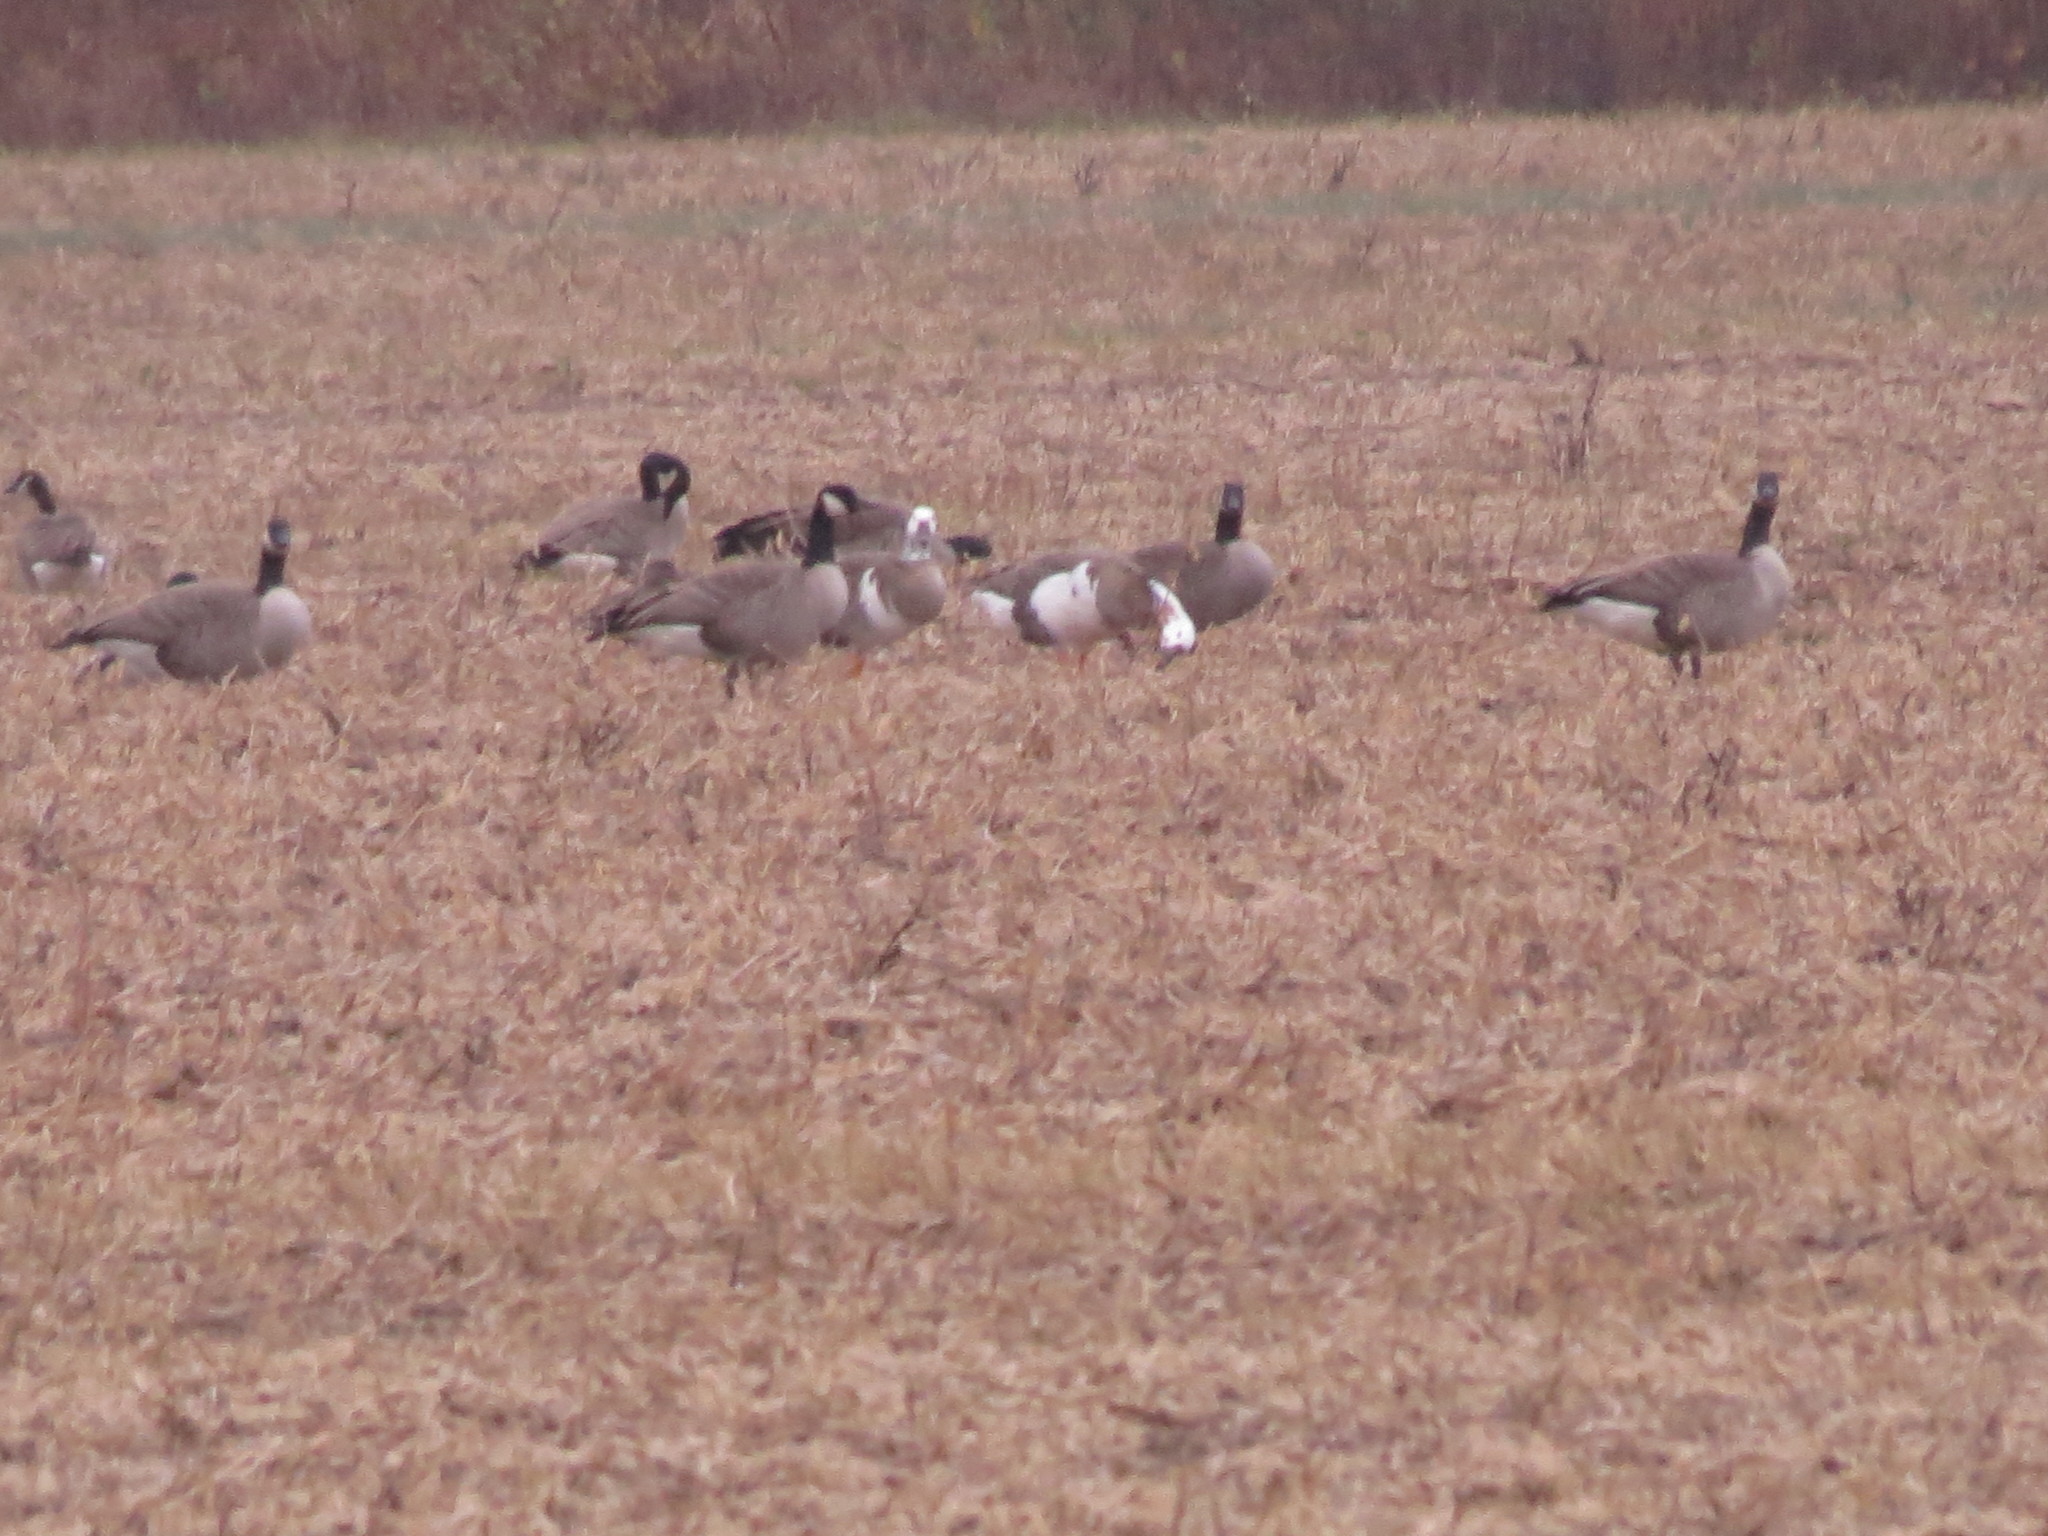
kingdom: Animalia
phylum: Chordata
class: Aves
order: Anseriformes
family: Anatidae
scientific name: Anatidae
